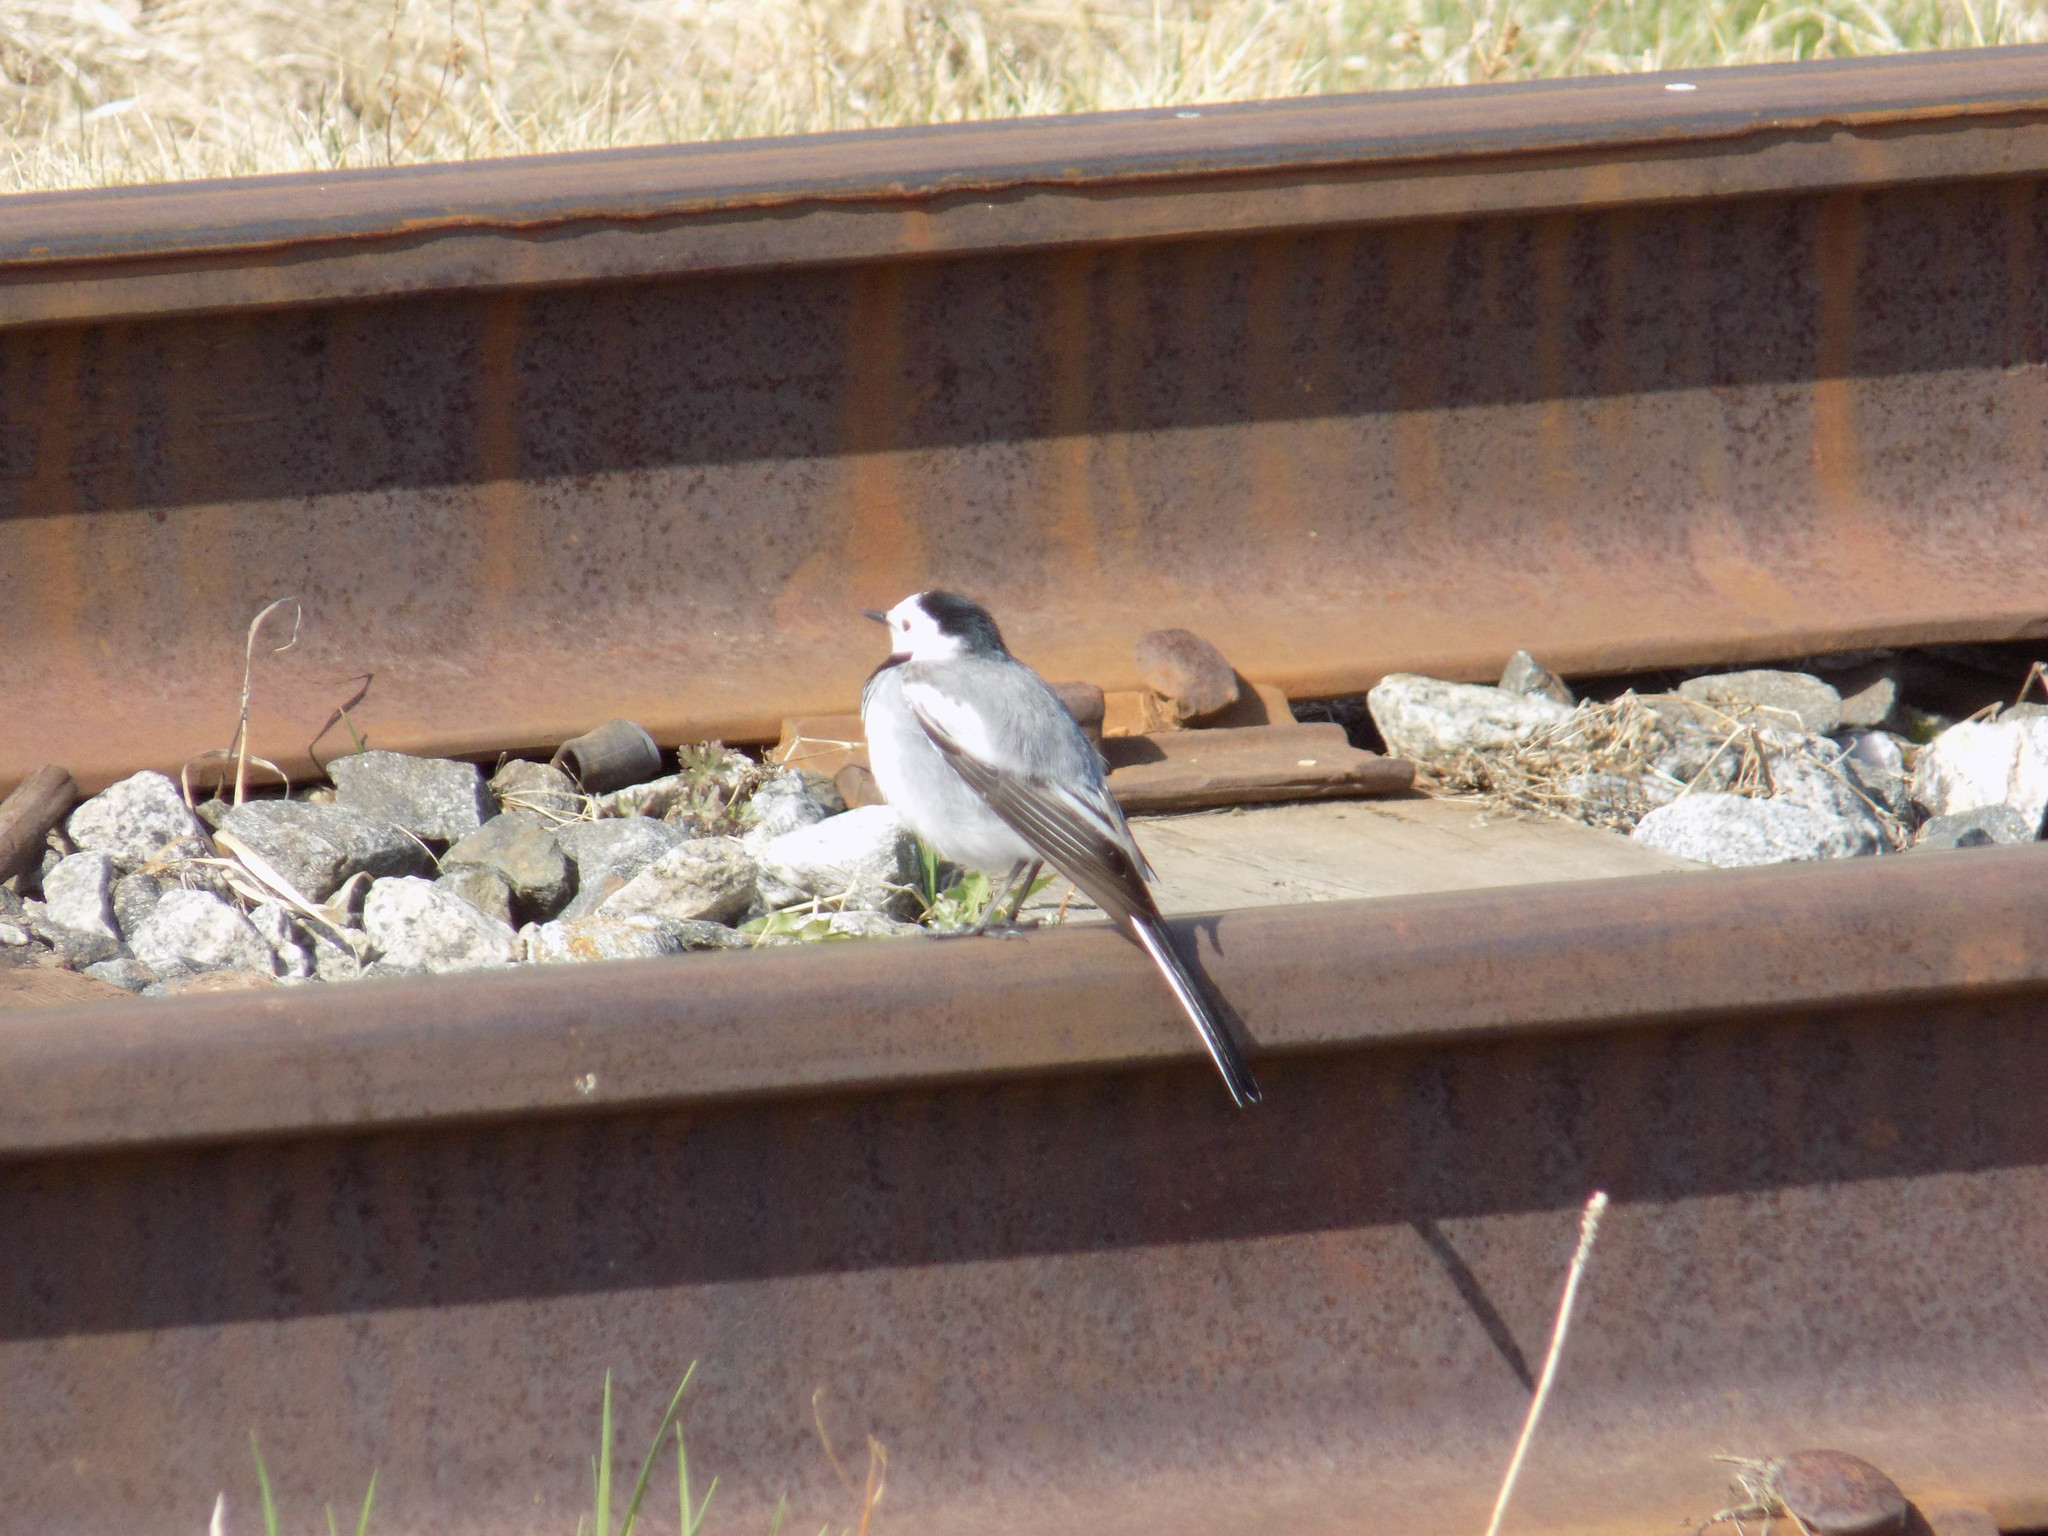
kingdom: Animalia
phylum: Chordata
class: Aves
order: Passeriformes
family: Motacillidae
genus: Motacilla
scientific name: Motacilla alba
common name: White wagtail
